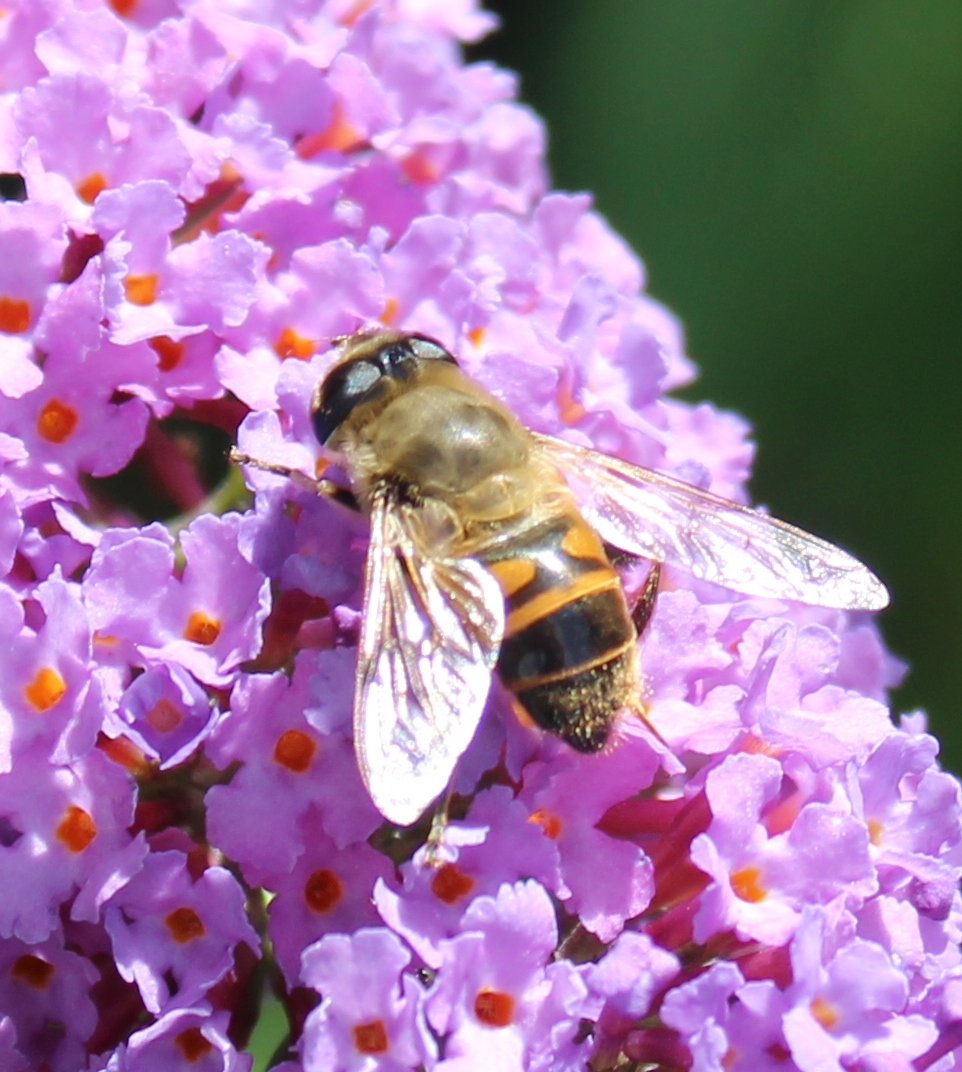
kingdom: Animalia
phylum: Arthropoda
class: Insecta
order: Diptera
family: Syrphidae
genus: Eristalis
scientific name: Eristalis tenax
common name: Drone fly
